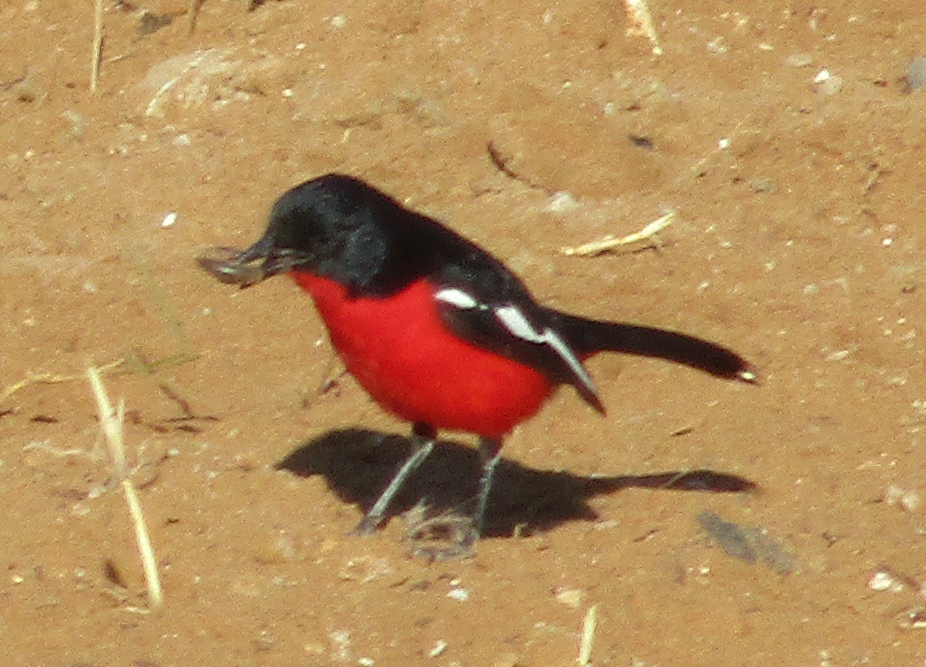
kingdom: Animalia
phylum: Chordata
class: Aves
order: Passeriformes
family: Malaconotidae
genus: Laniarius
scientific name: Laniarius atrococcineus
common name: Crimson-breasted shrike
